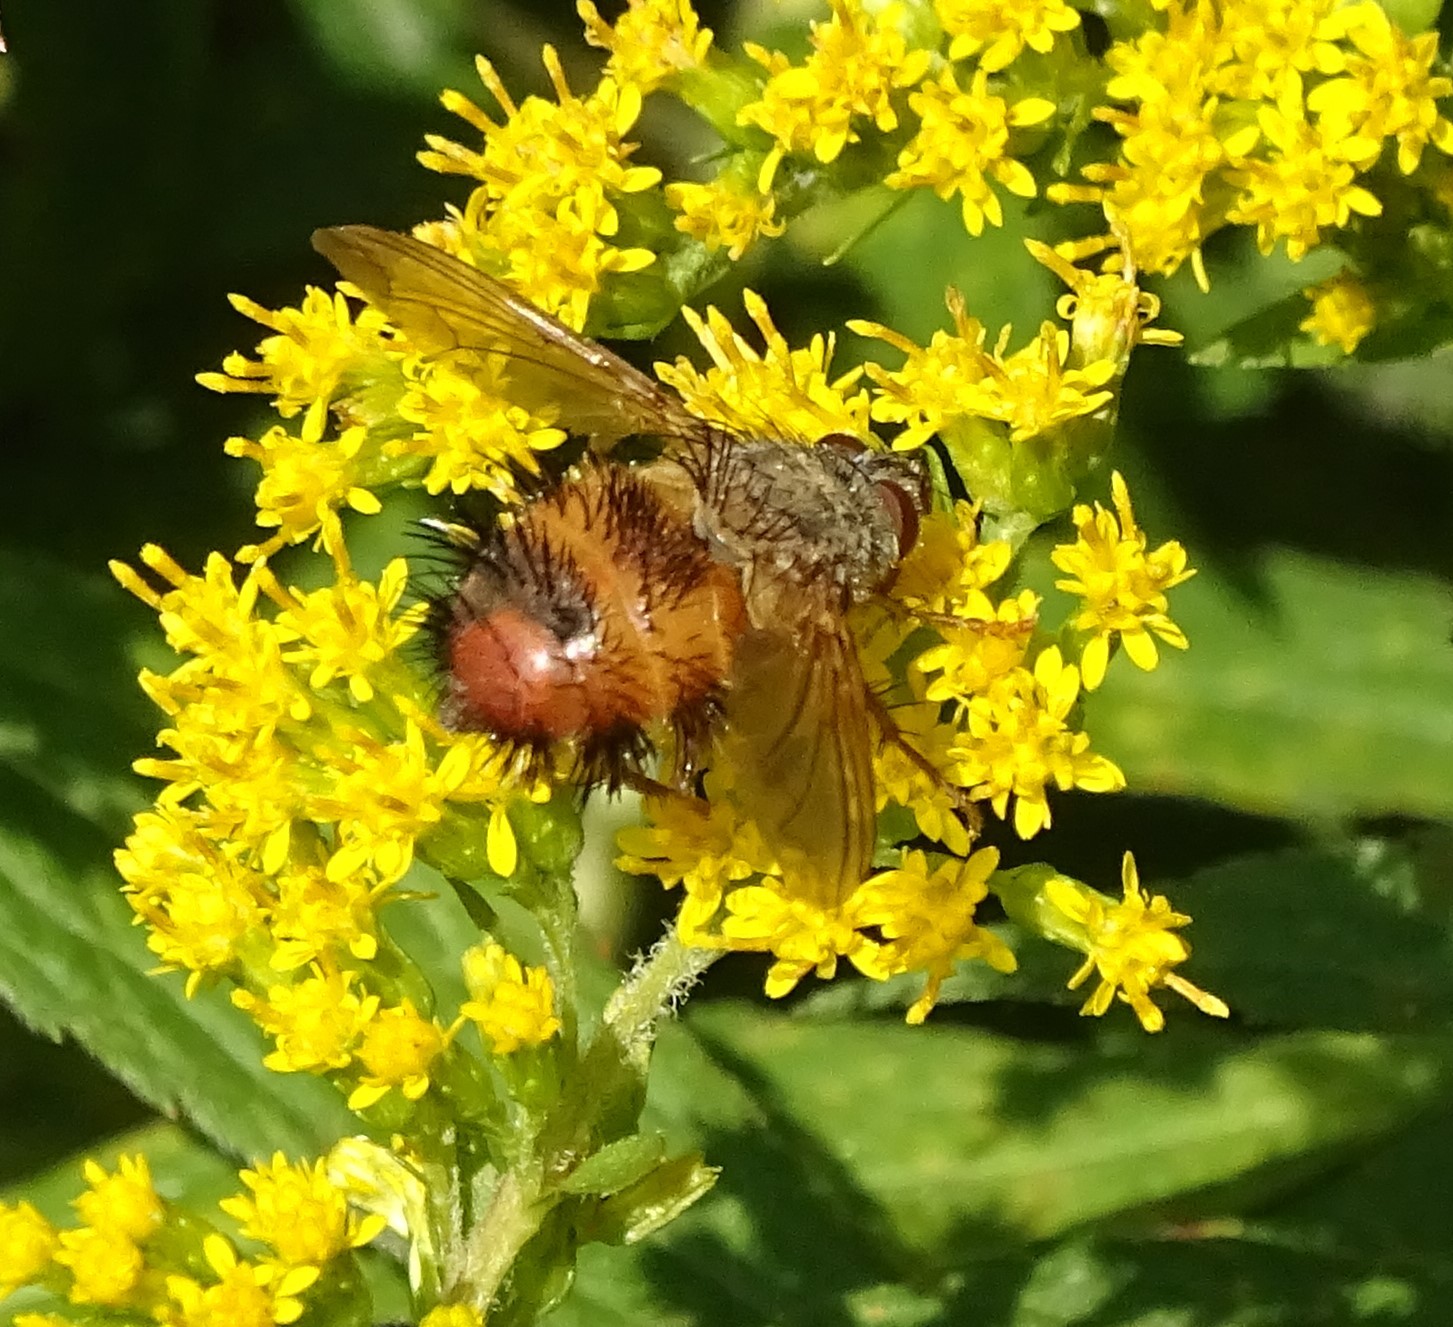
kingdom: Animalia
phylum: Arthropoda
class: Insecta
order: Diptera
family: Tachinidae
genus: Hystricia
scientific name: Hystricia abrupta
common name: Tomato bristle fly
